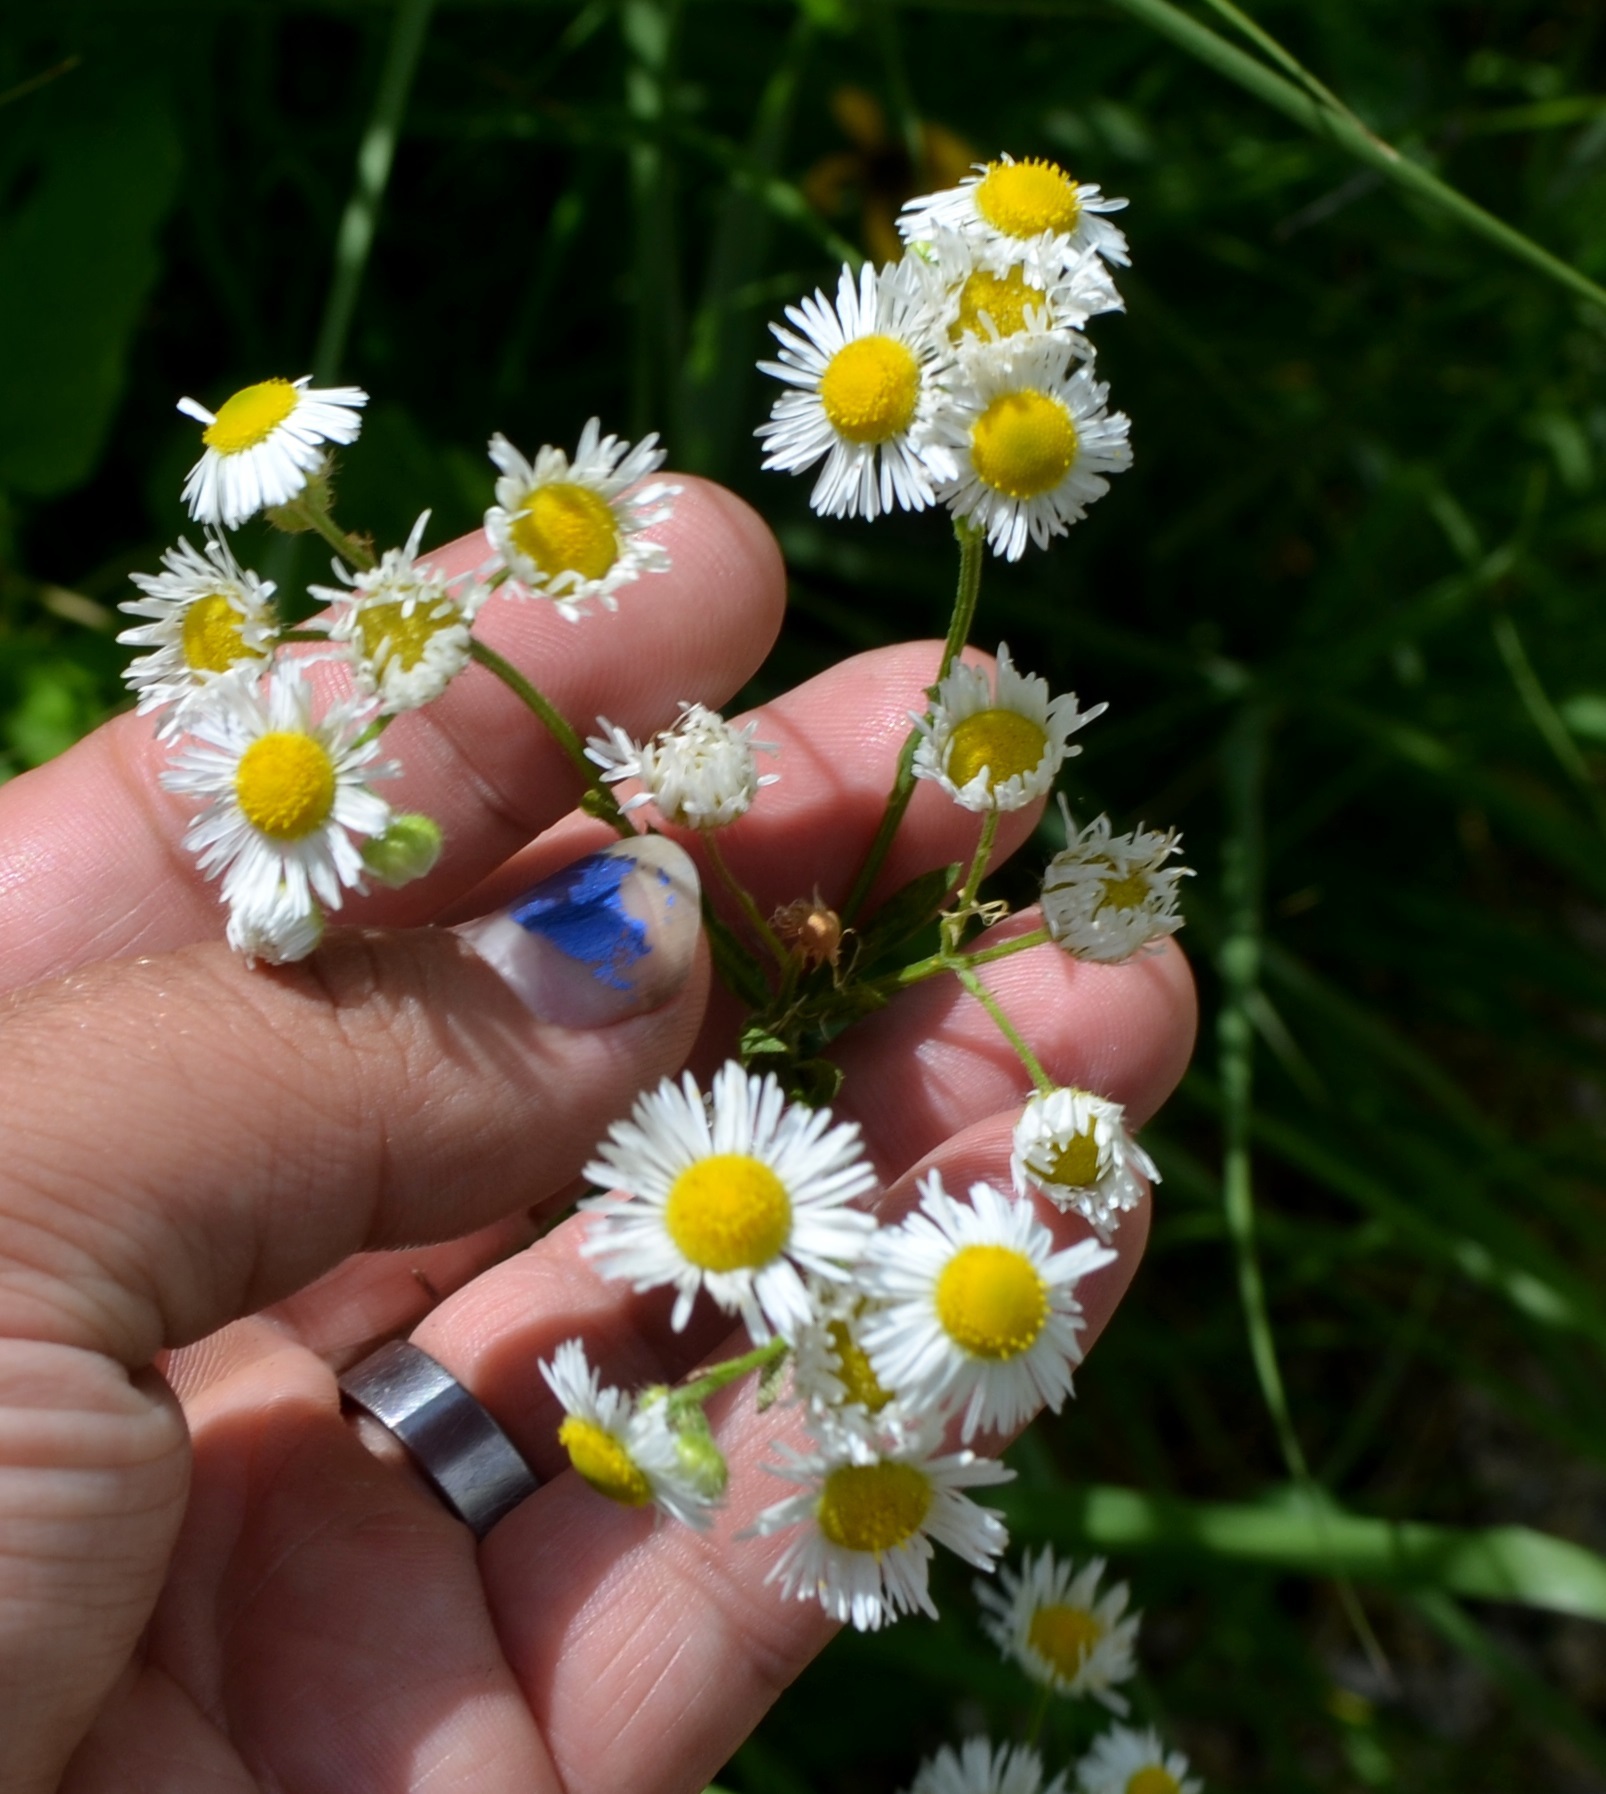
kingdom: Plantae
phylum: Tracheophyta
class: Magnoliopsida
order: Asterales
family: Asteraceae
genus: Erigeron
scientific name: Erigeron strigosus
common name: Common eastern fleabane
